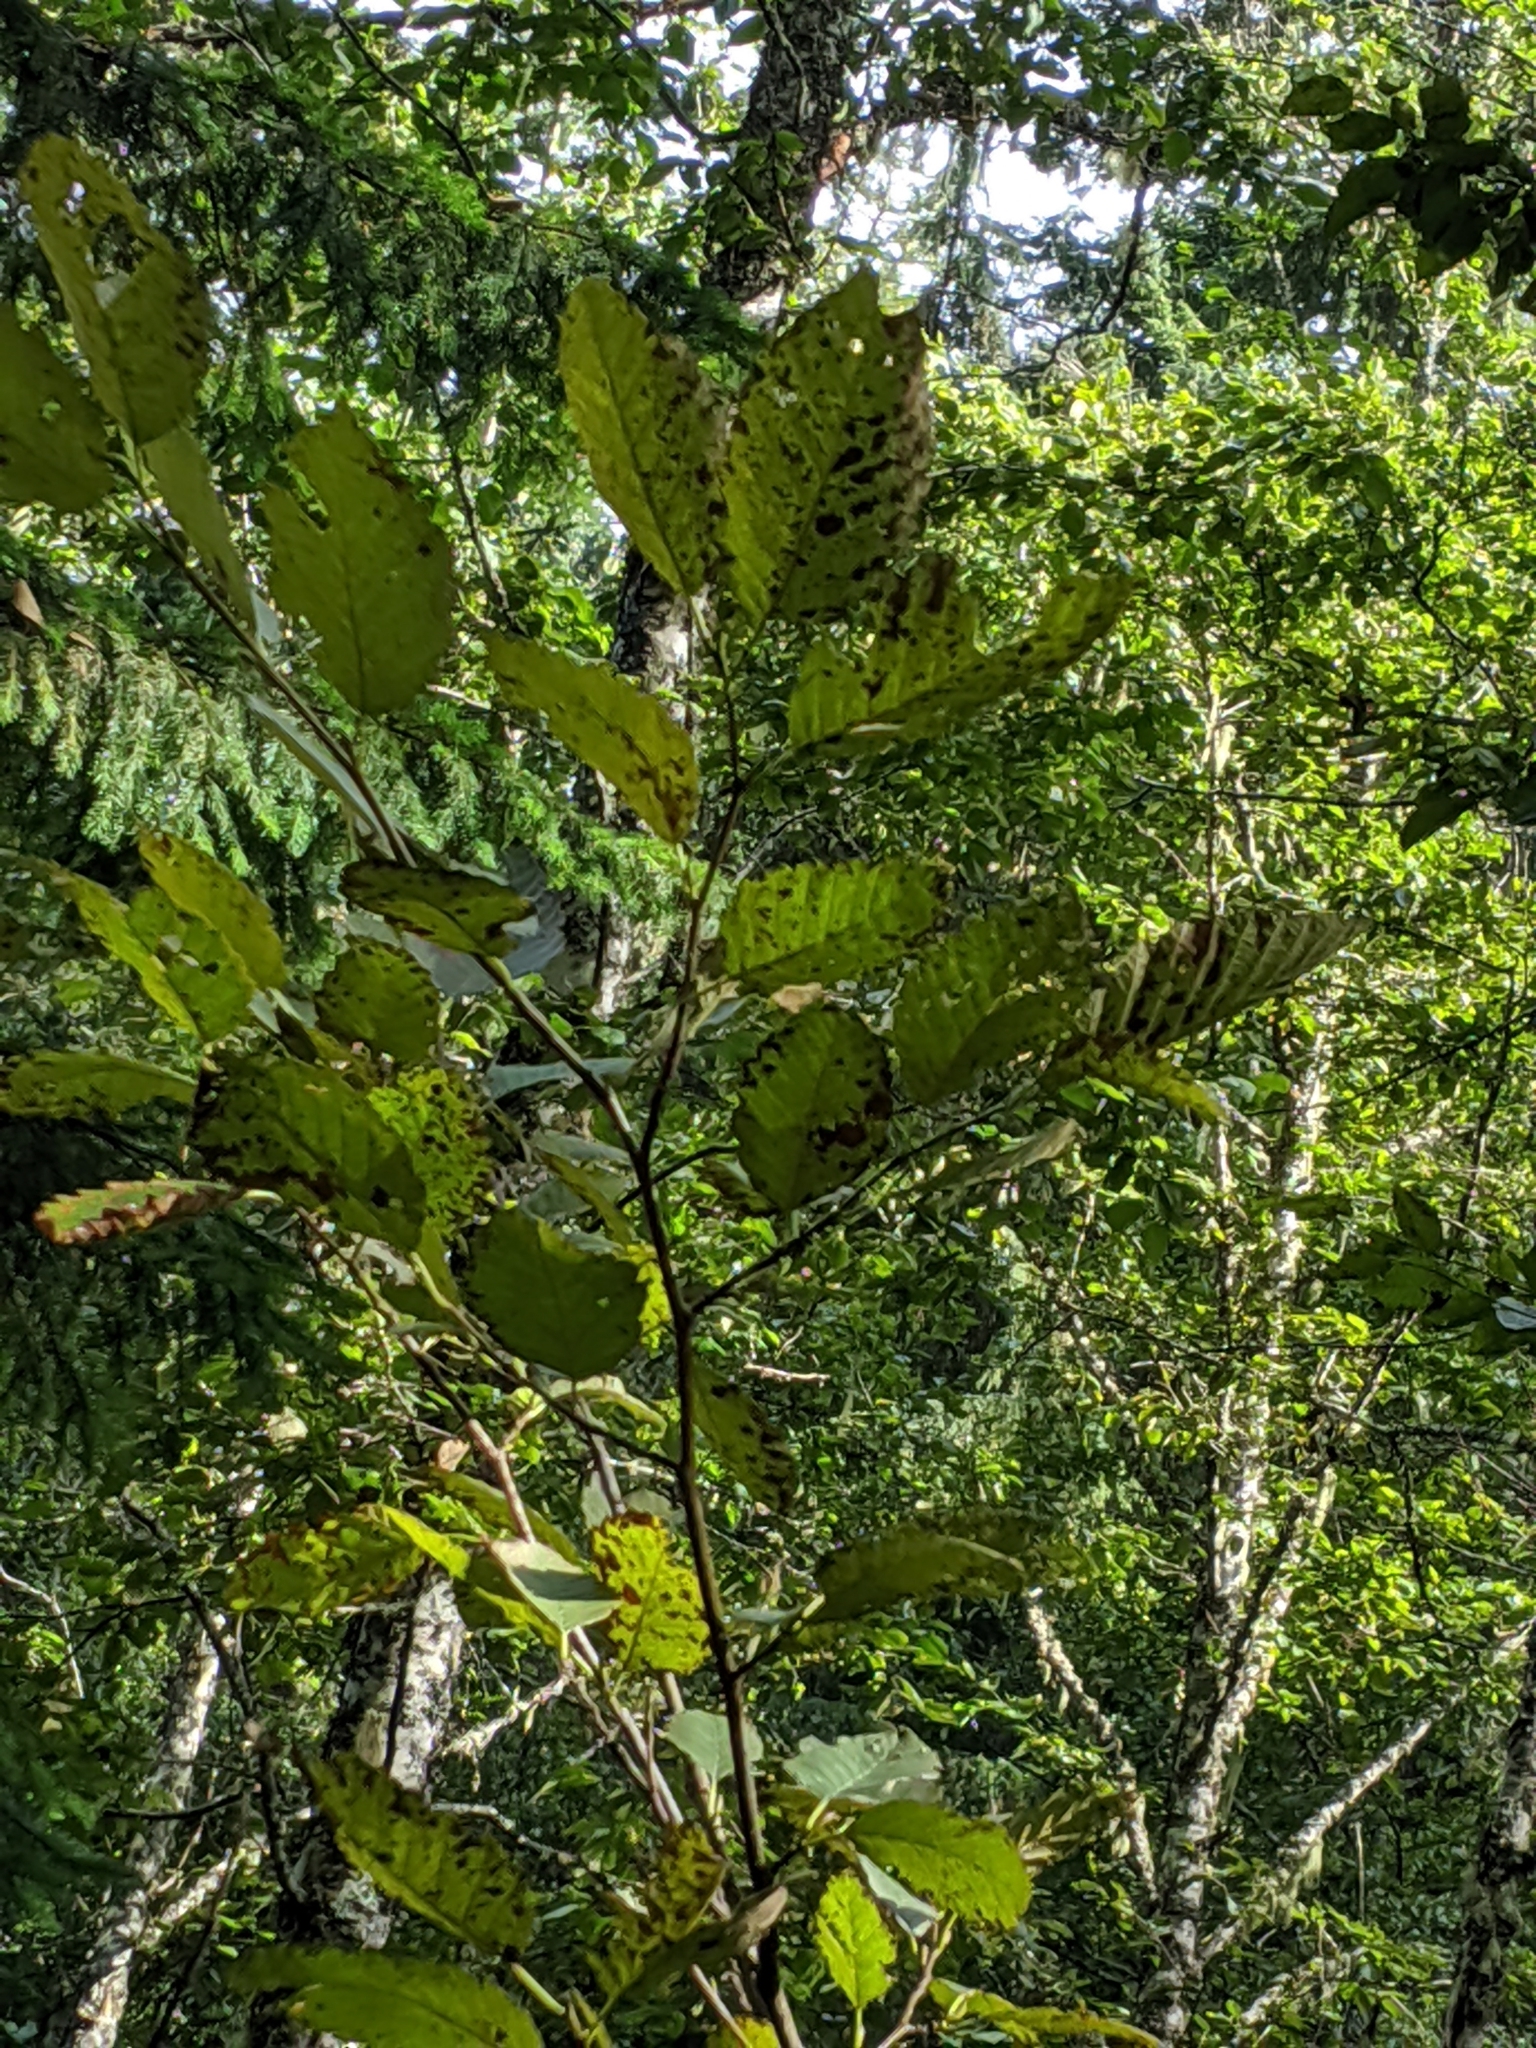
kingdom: Plantae
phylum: Tracheophyta
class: Magnoliopsida
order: Fagales
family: Betulaceae
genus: Alnus
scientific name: Alnus rubra
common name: Red alder
